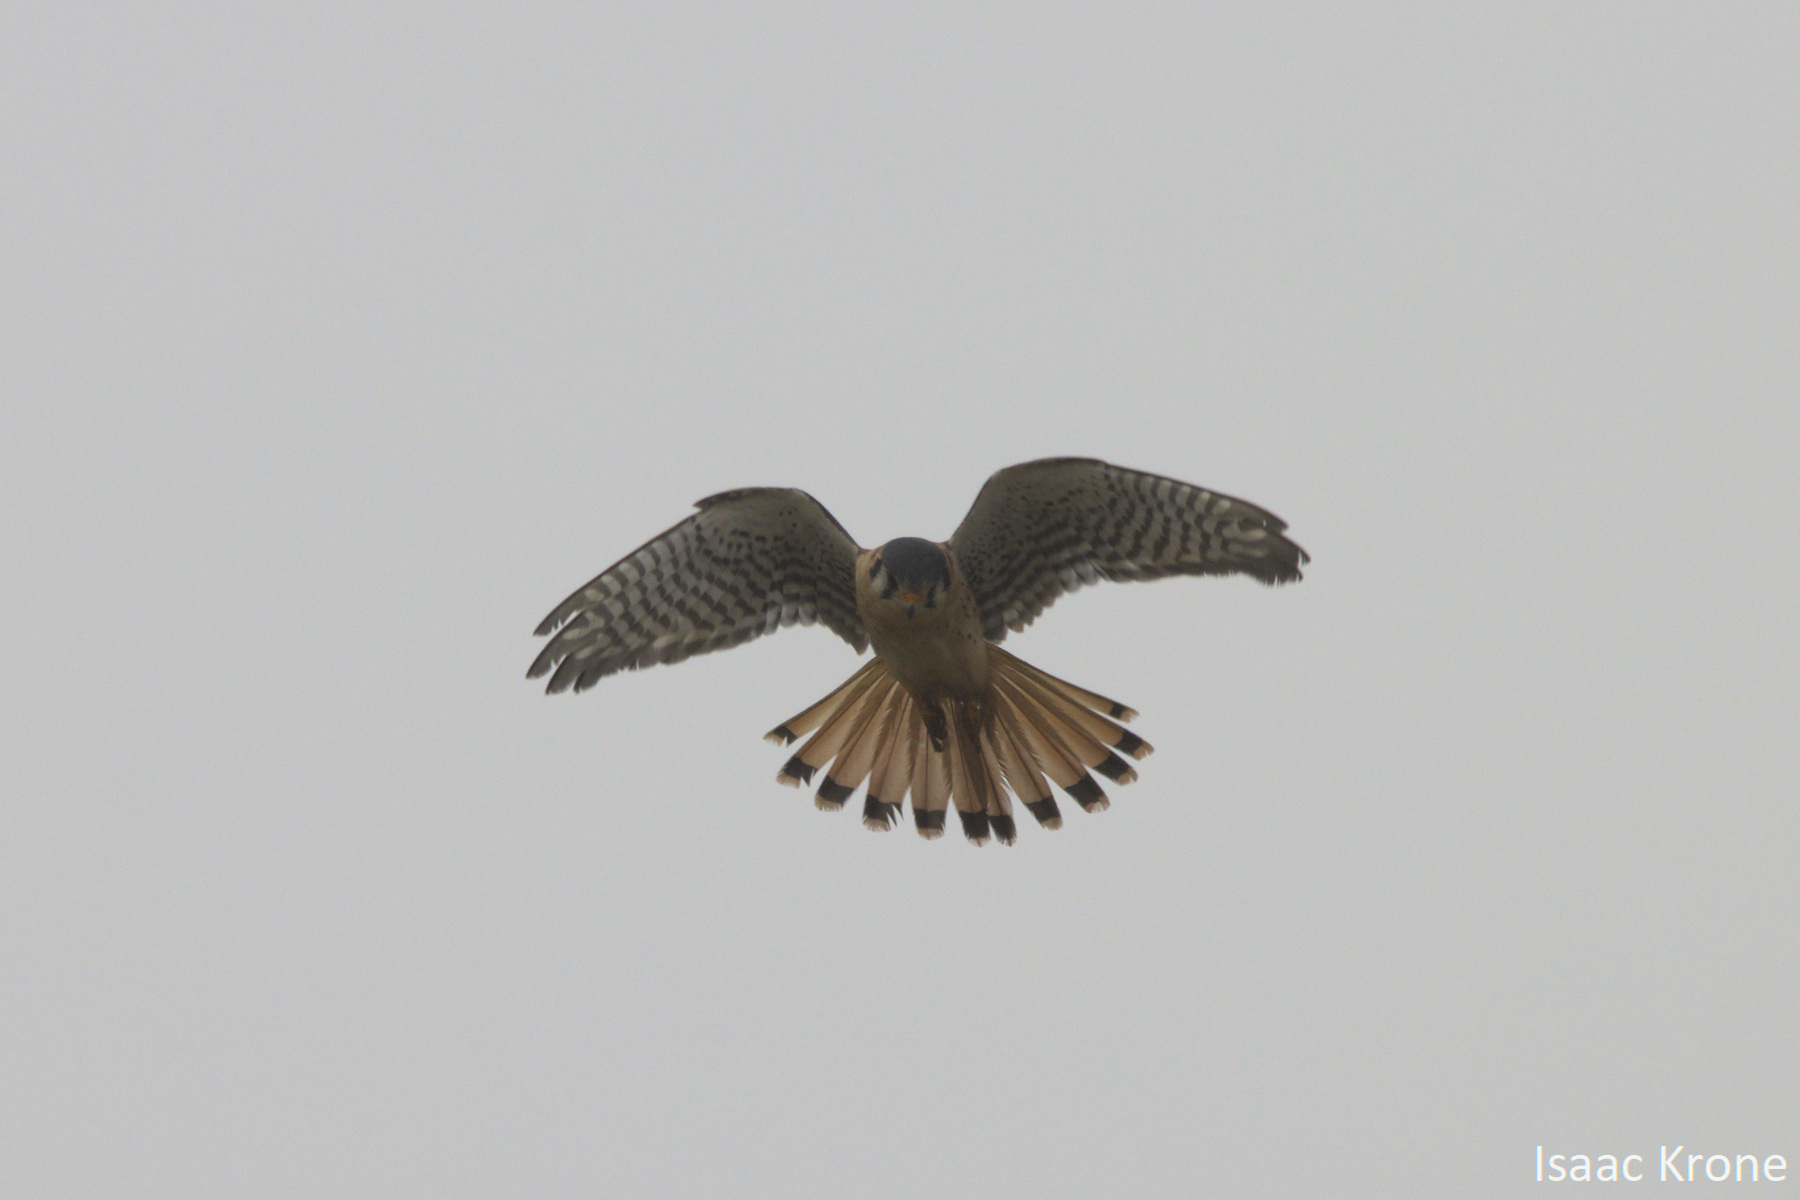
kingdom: Animalia
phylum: Chordata
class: Aves
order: Falconiformes
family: Falconidae
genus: Falco
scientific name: Falco sparverius
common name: American kestrel
